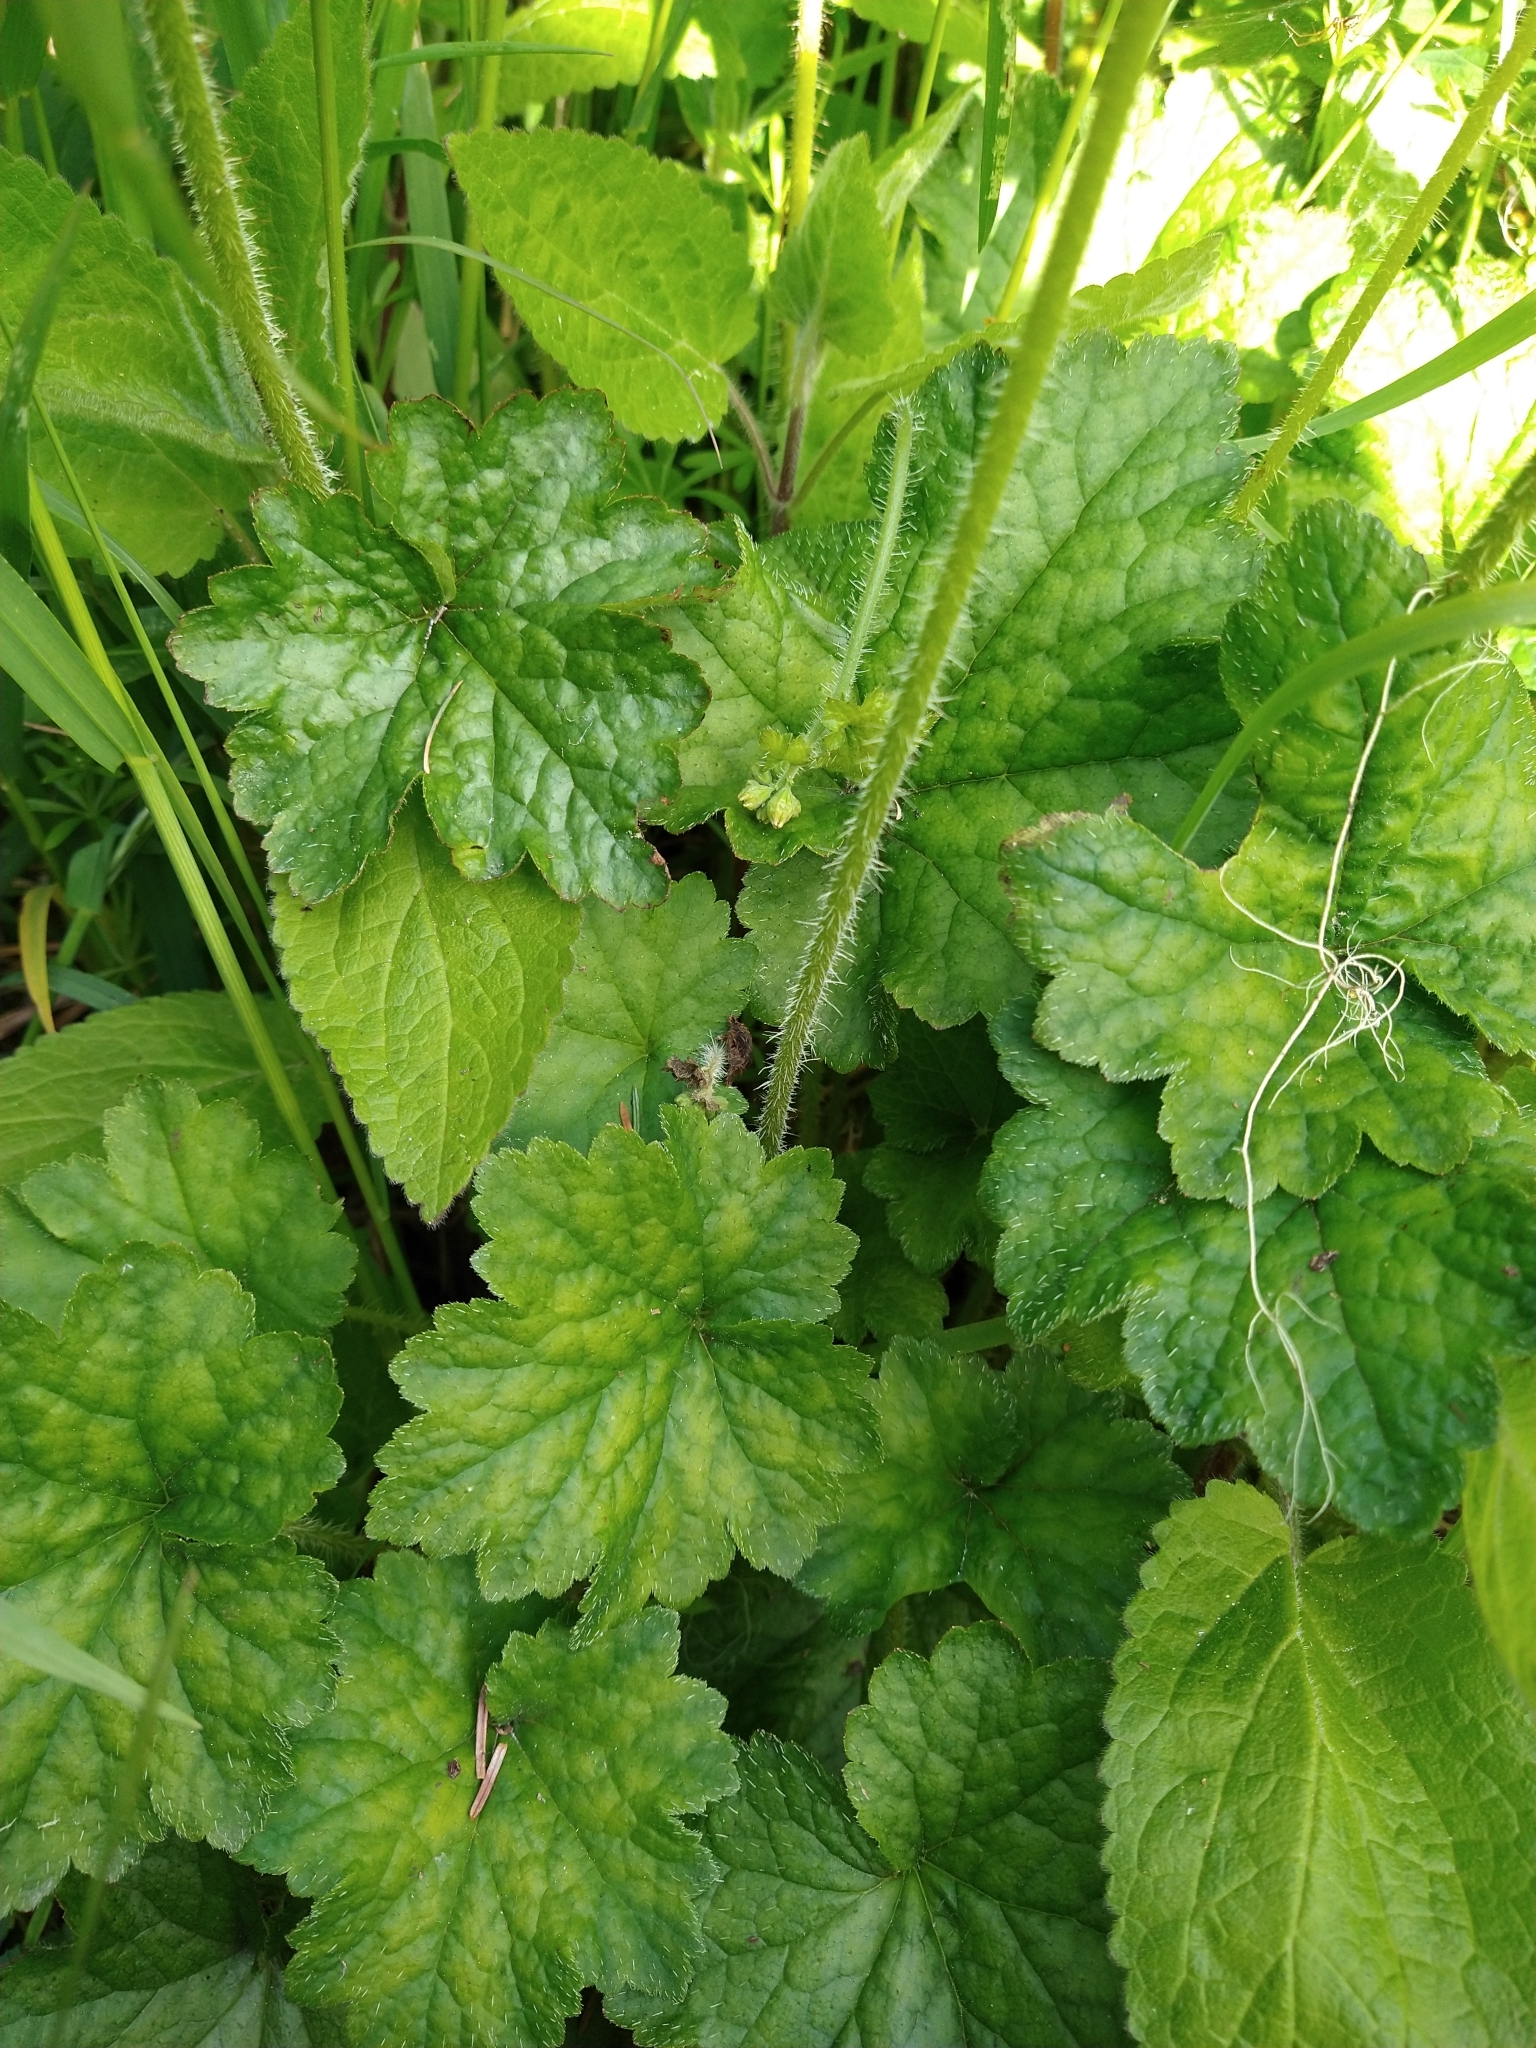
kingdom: Plantae
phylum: Tracheophyta
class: Magnoliopsida
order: Saxifragales
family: Saxifragaceae
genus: Tellima
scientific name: Tellima grandiflora
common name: Fringecups
